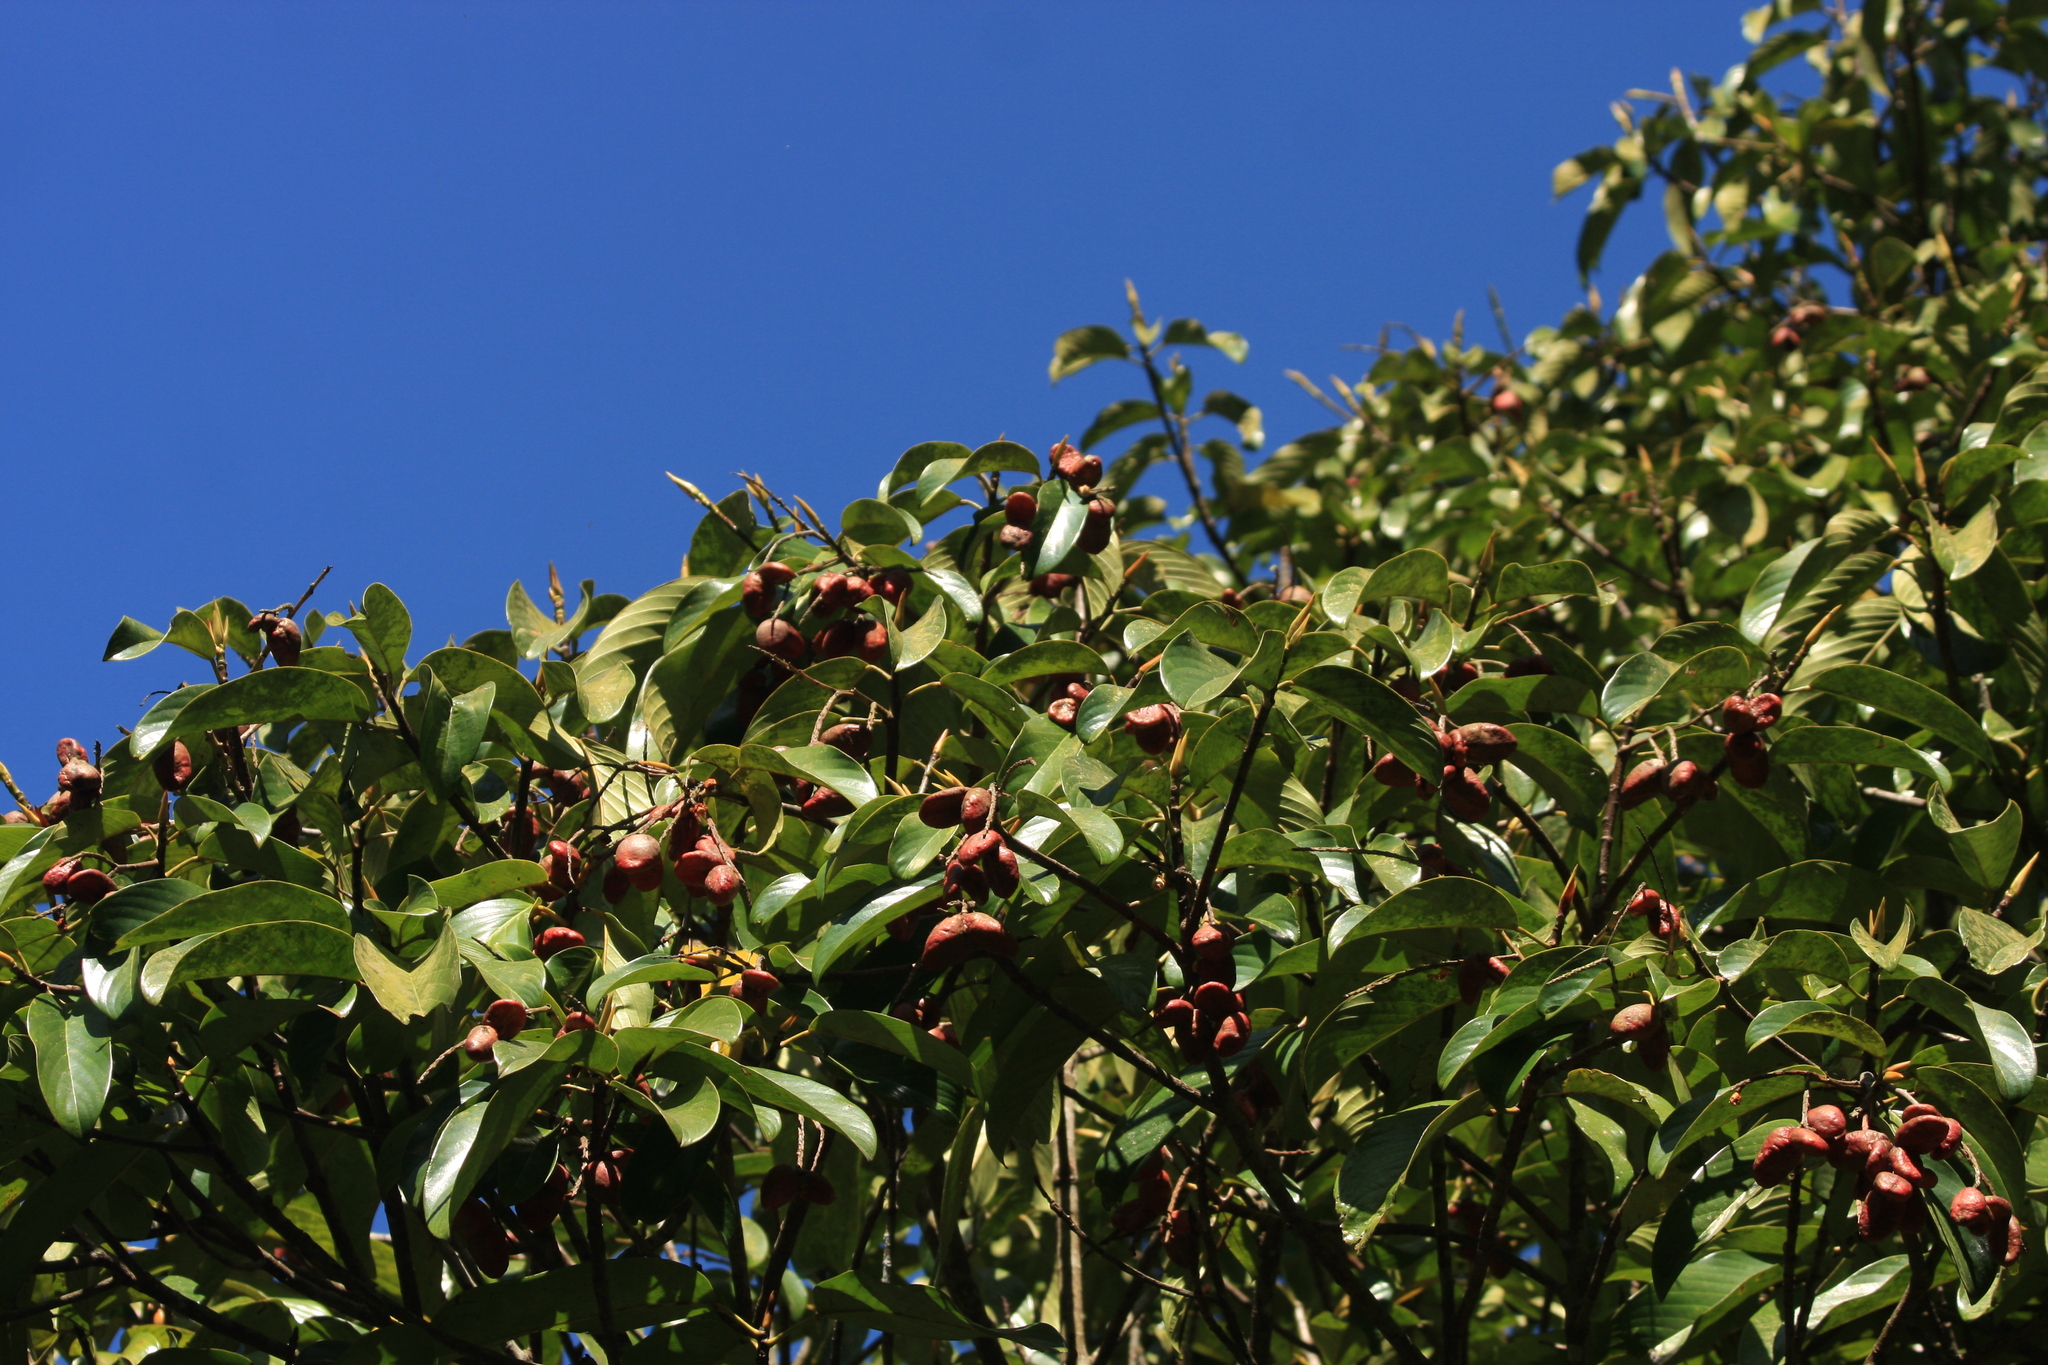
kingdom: Plantae
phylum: Tracheophyta
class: Magnoliopsida
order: Malpighiales
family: Centroplacaceae
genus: Bhesa
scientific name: Bhesa indica
